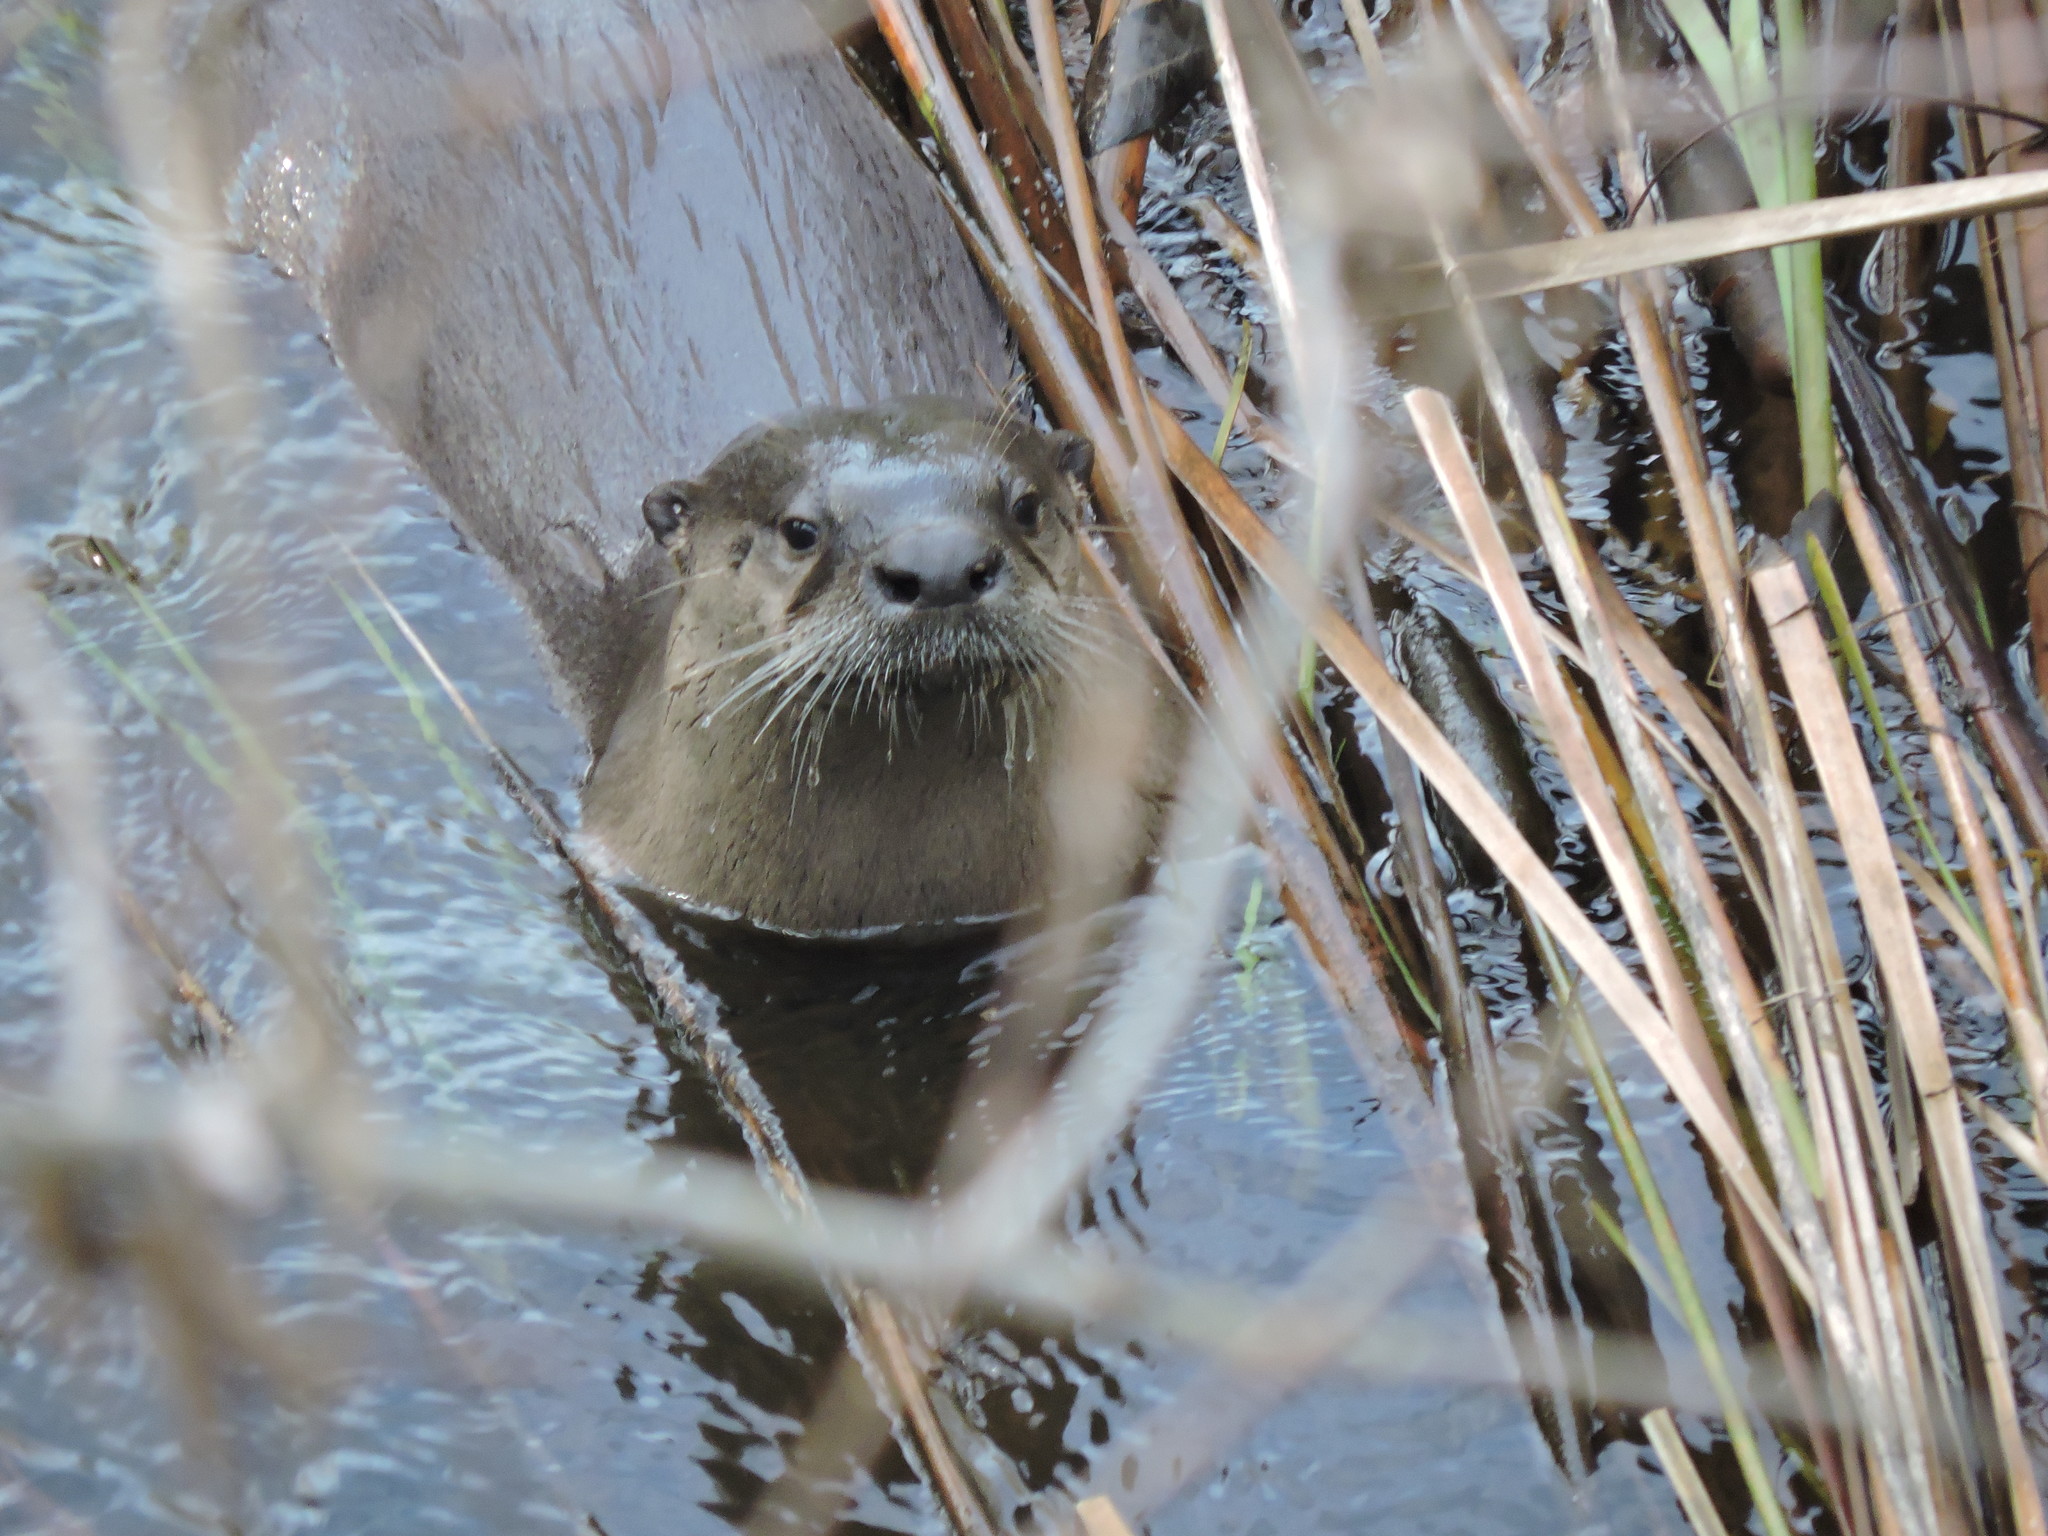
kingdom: Animalia
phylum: Chordata
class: Mammalia
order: Carnivora
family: Mustelidae
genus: Lontra
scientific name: Lontra canadensis
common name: North american river otter
